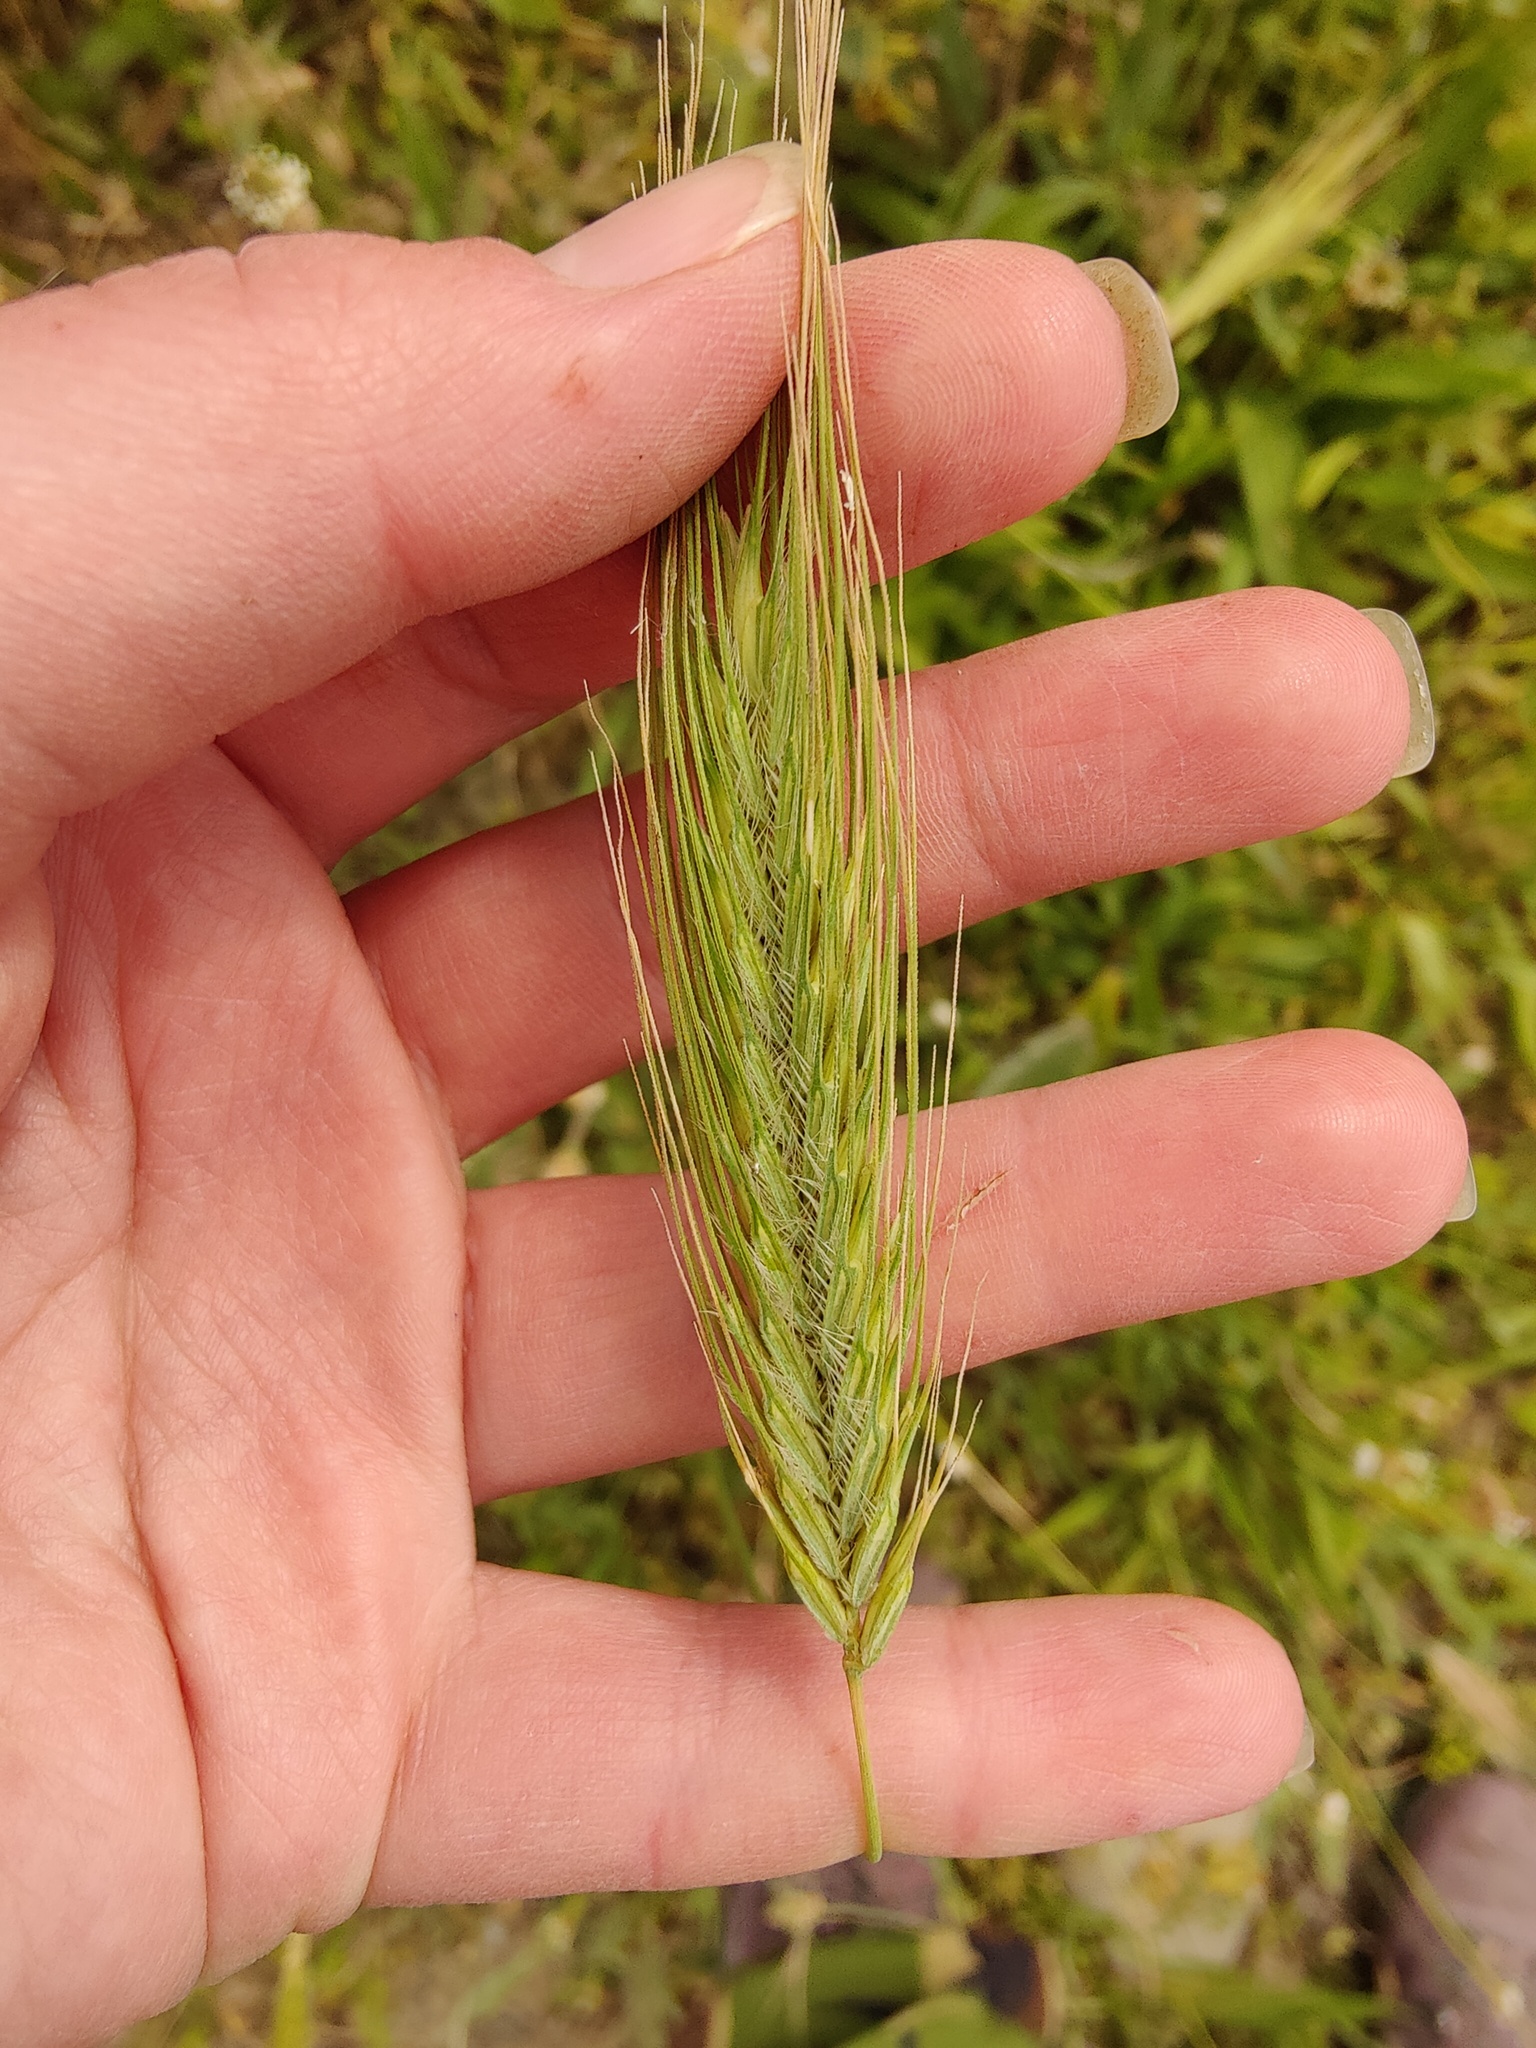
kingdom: Plantae
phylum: Tracheophyta
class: Liliopsida
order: Poales
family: Poaceae
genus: Dasypyrum
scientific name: Dasypyrum villosum
